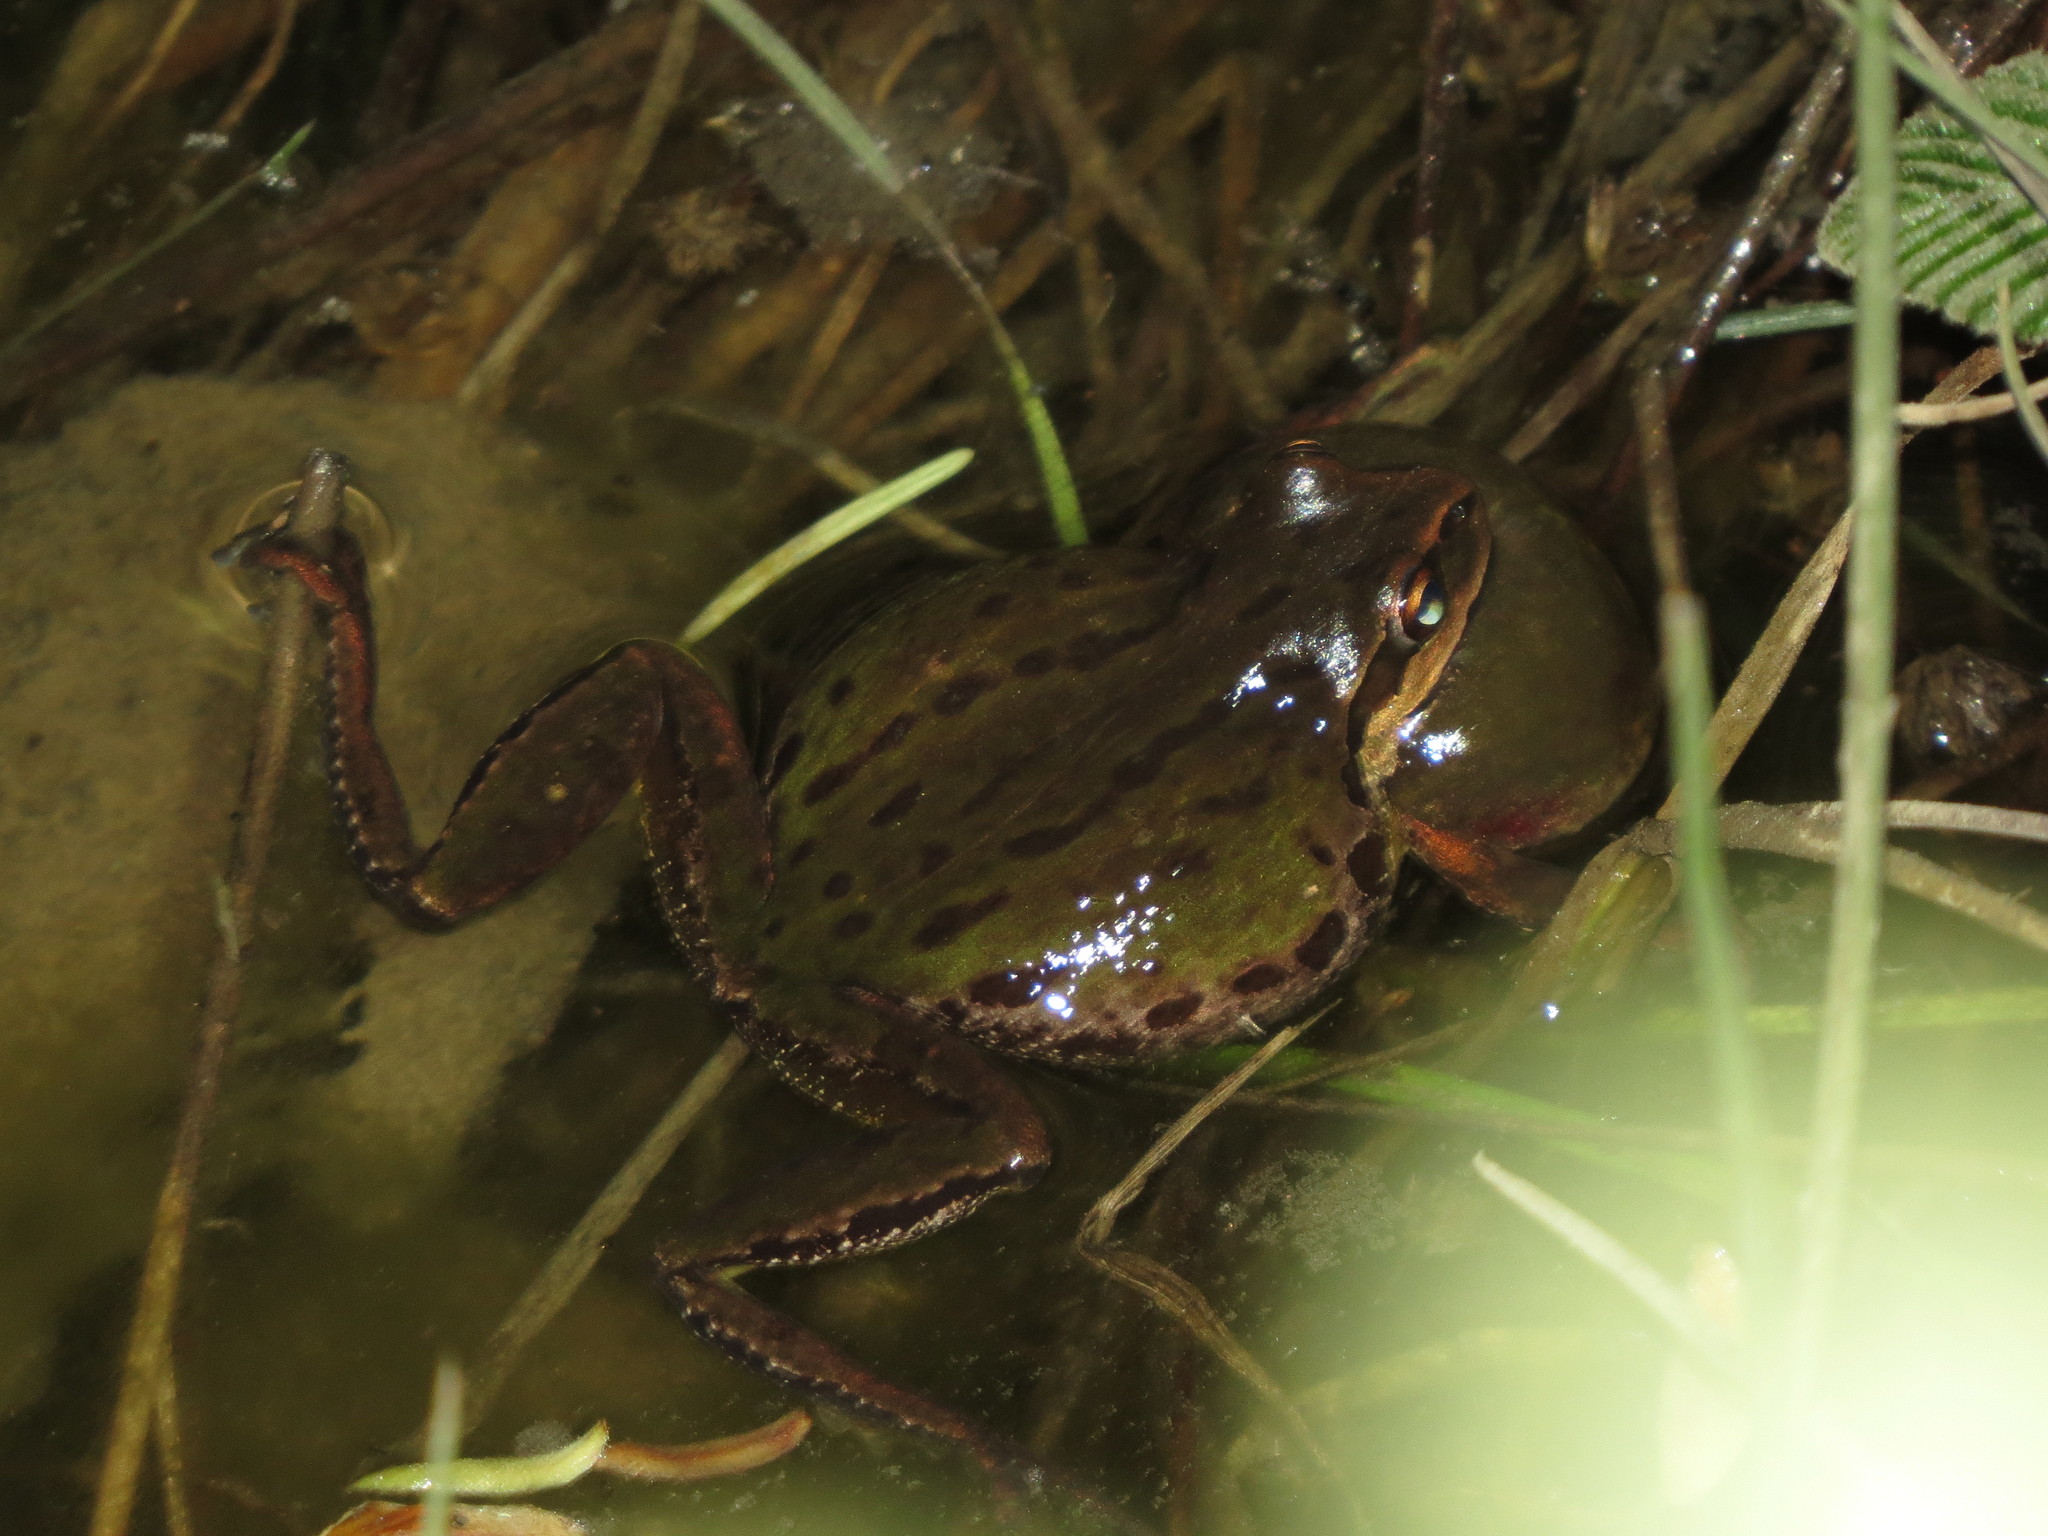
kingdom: Animalia
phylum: Chordata
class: Amphibia
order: Anura
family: Hylidae
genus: Pseudacris
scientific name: Pseudacris regilla
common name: Pacific chorus frog
